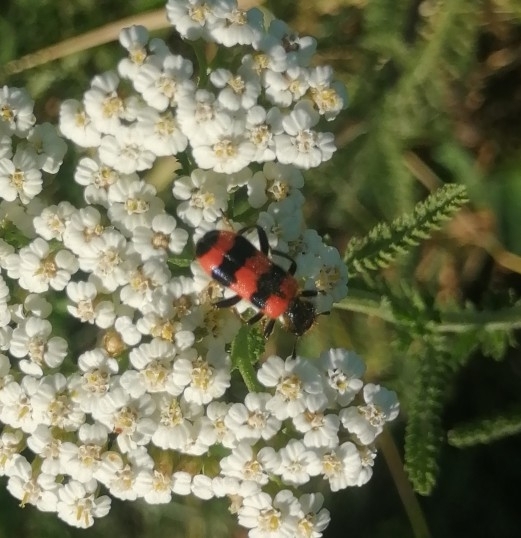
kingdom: Animalia
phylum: Arthropoda
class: Insecta
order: Coleoptera
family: Cleridae
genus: Trichodes
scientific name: Trichodes apiarius
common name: Bee-eating beetle
